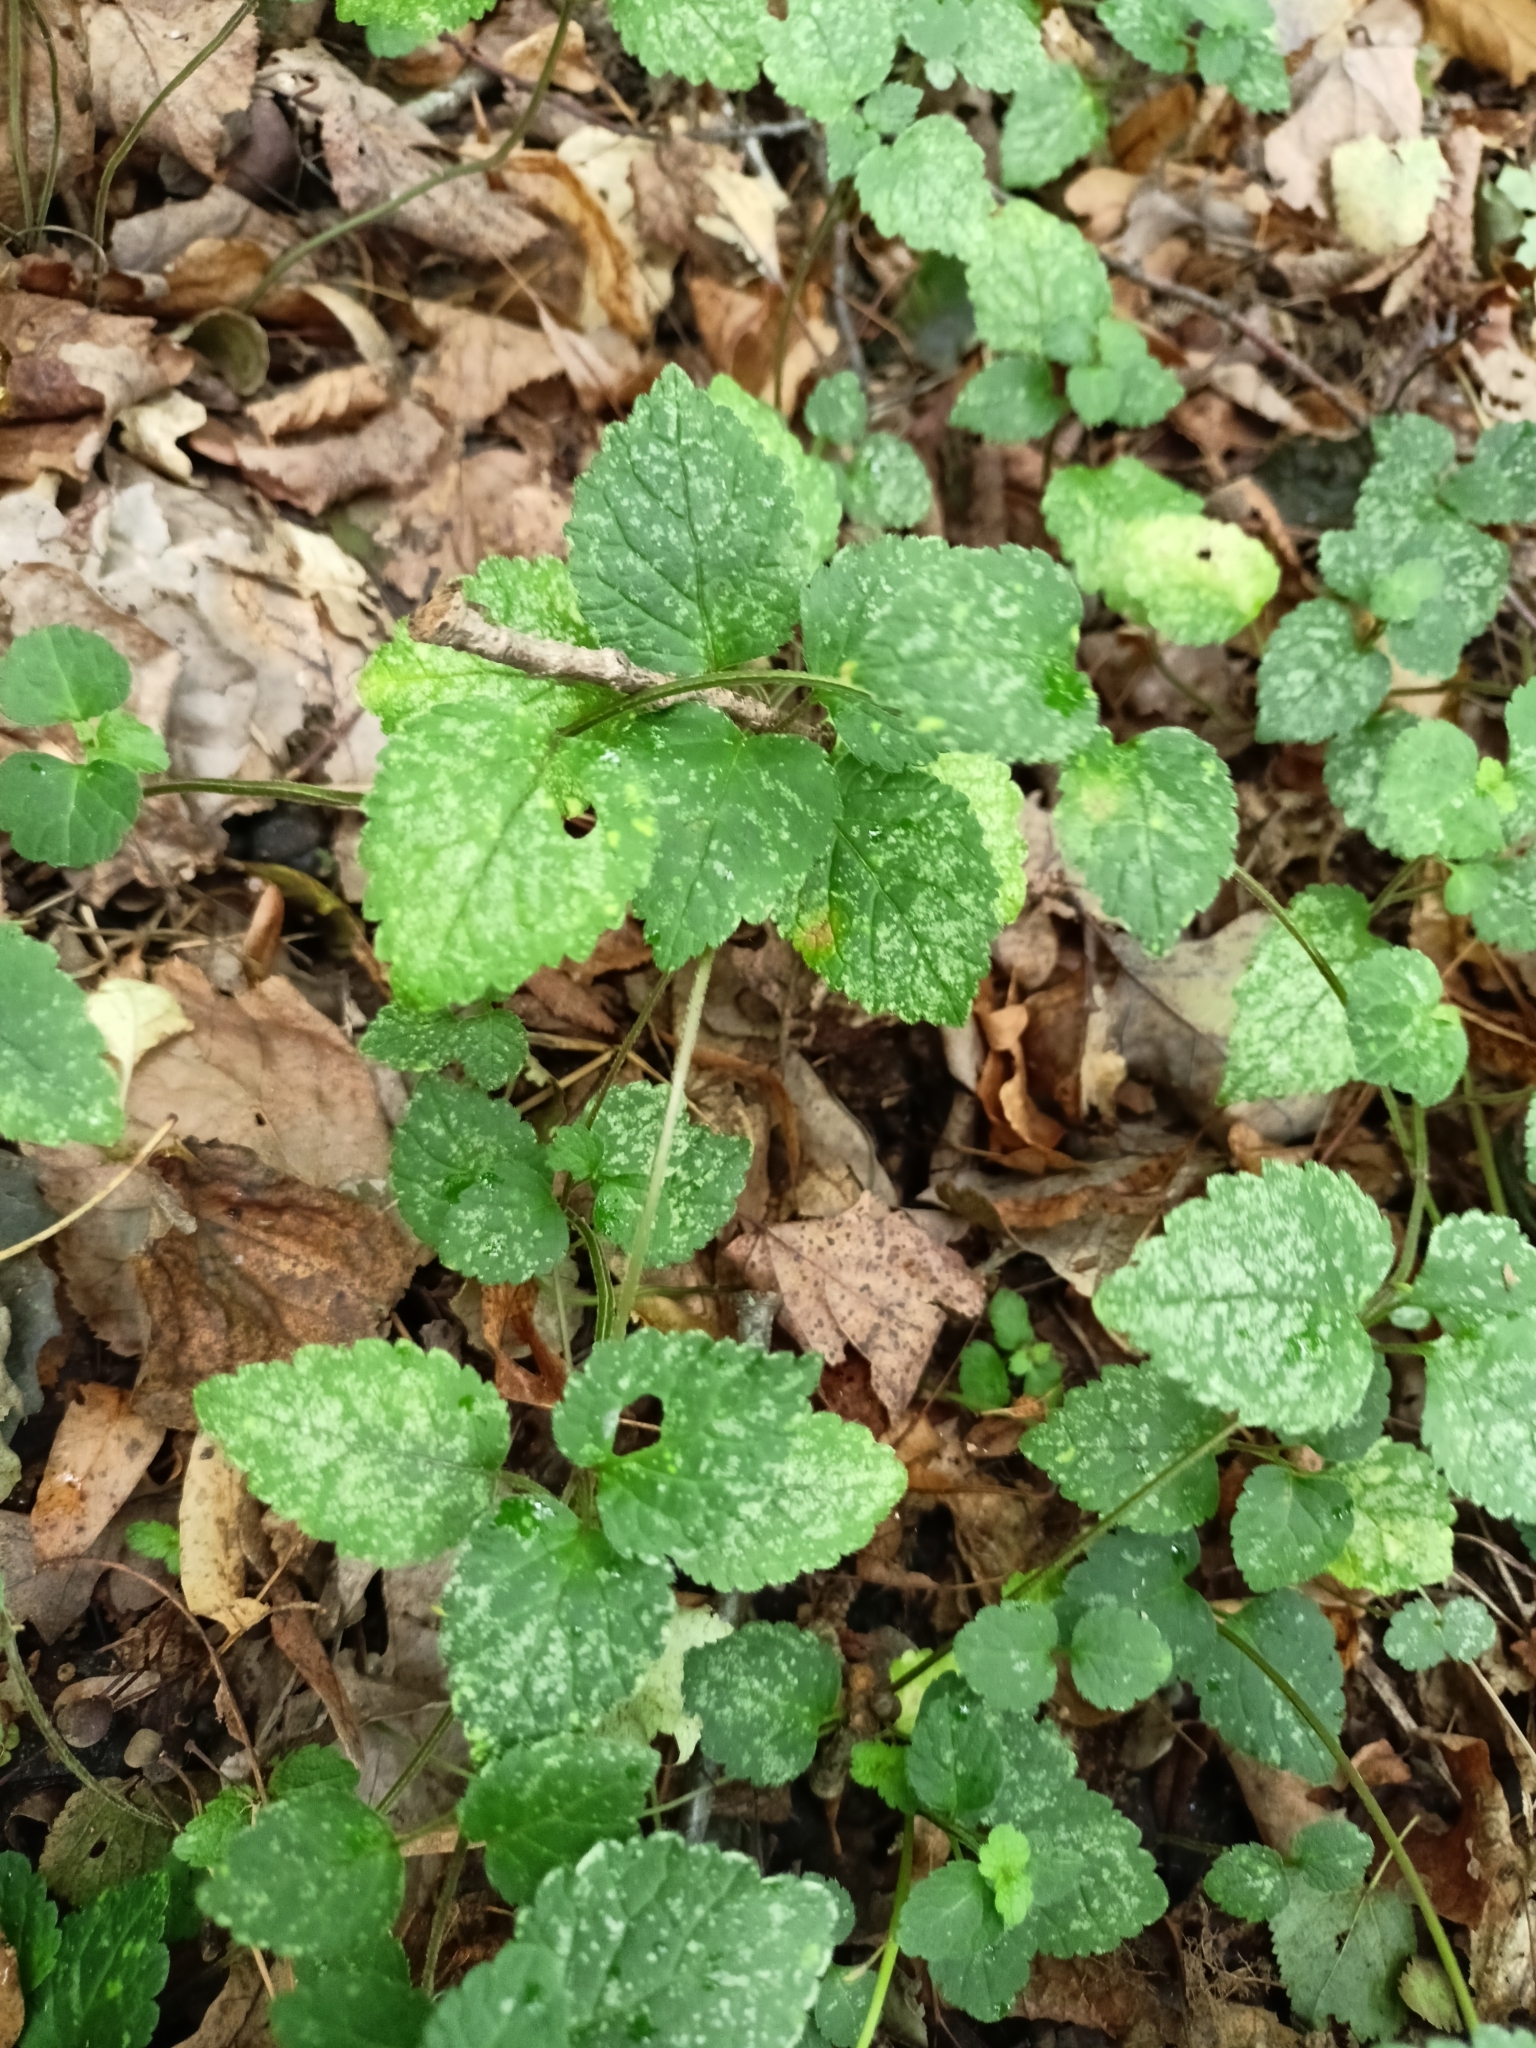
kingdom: Plantae
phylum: Tracheophyta
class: Magnoliopsida
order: Lamiales
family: Lamiaceae
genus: Lamium
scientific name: Lamium galeobdolon
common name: Yellow archangel
